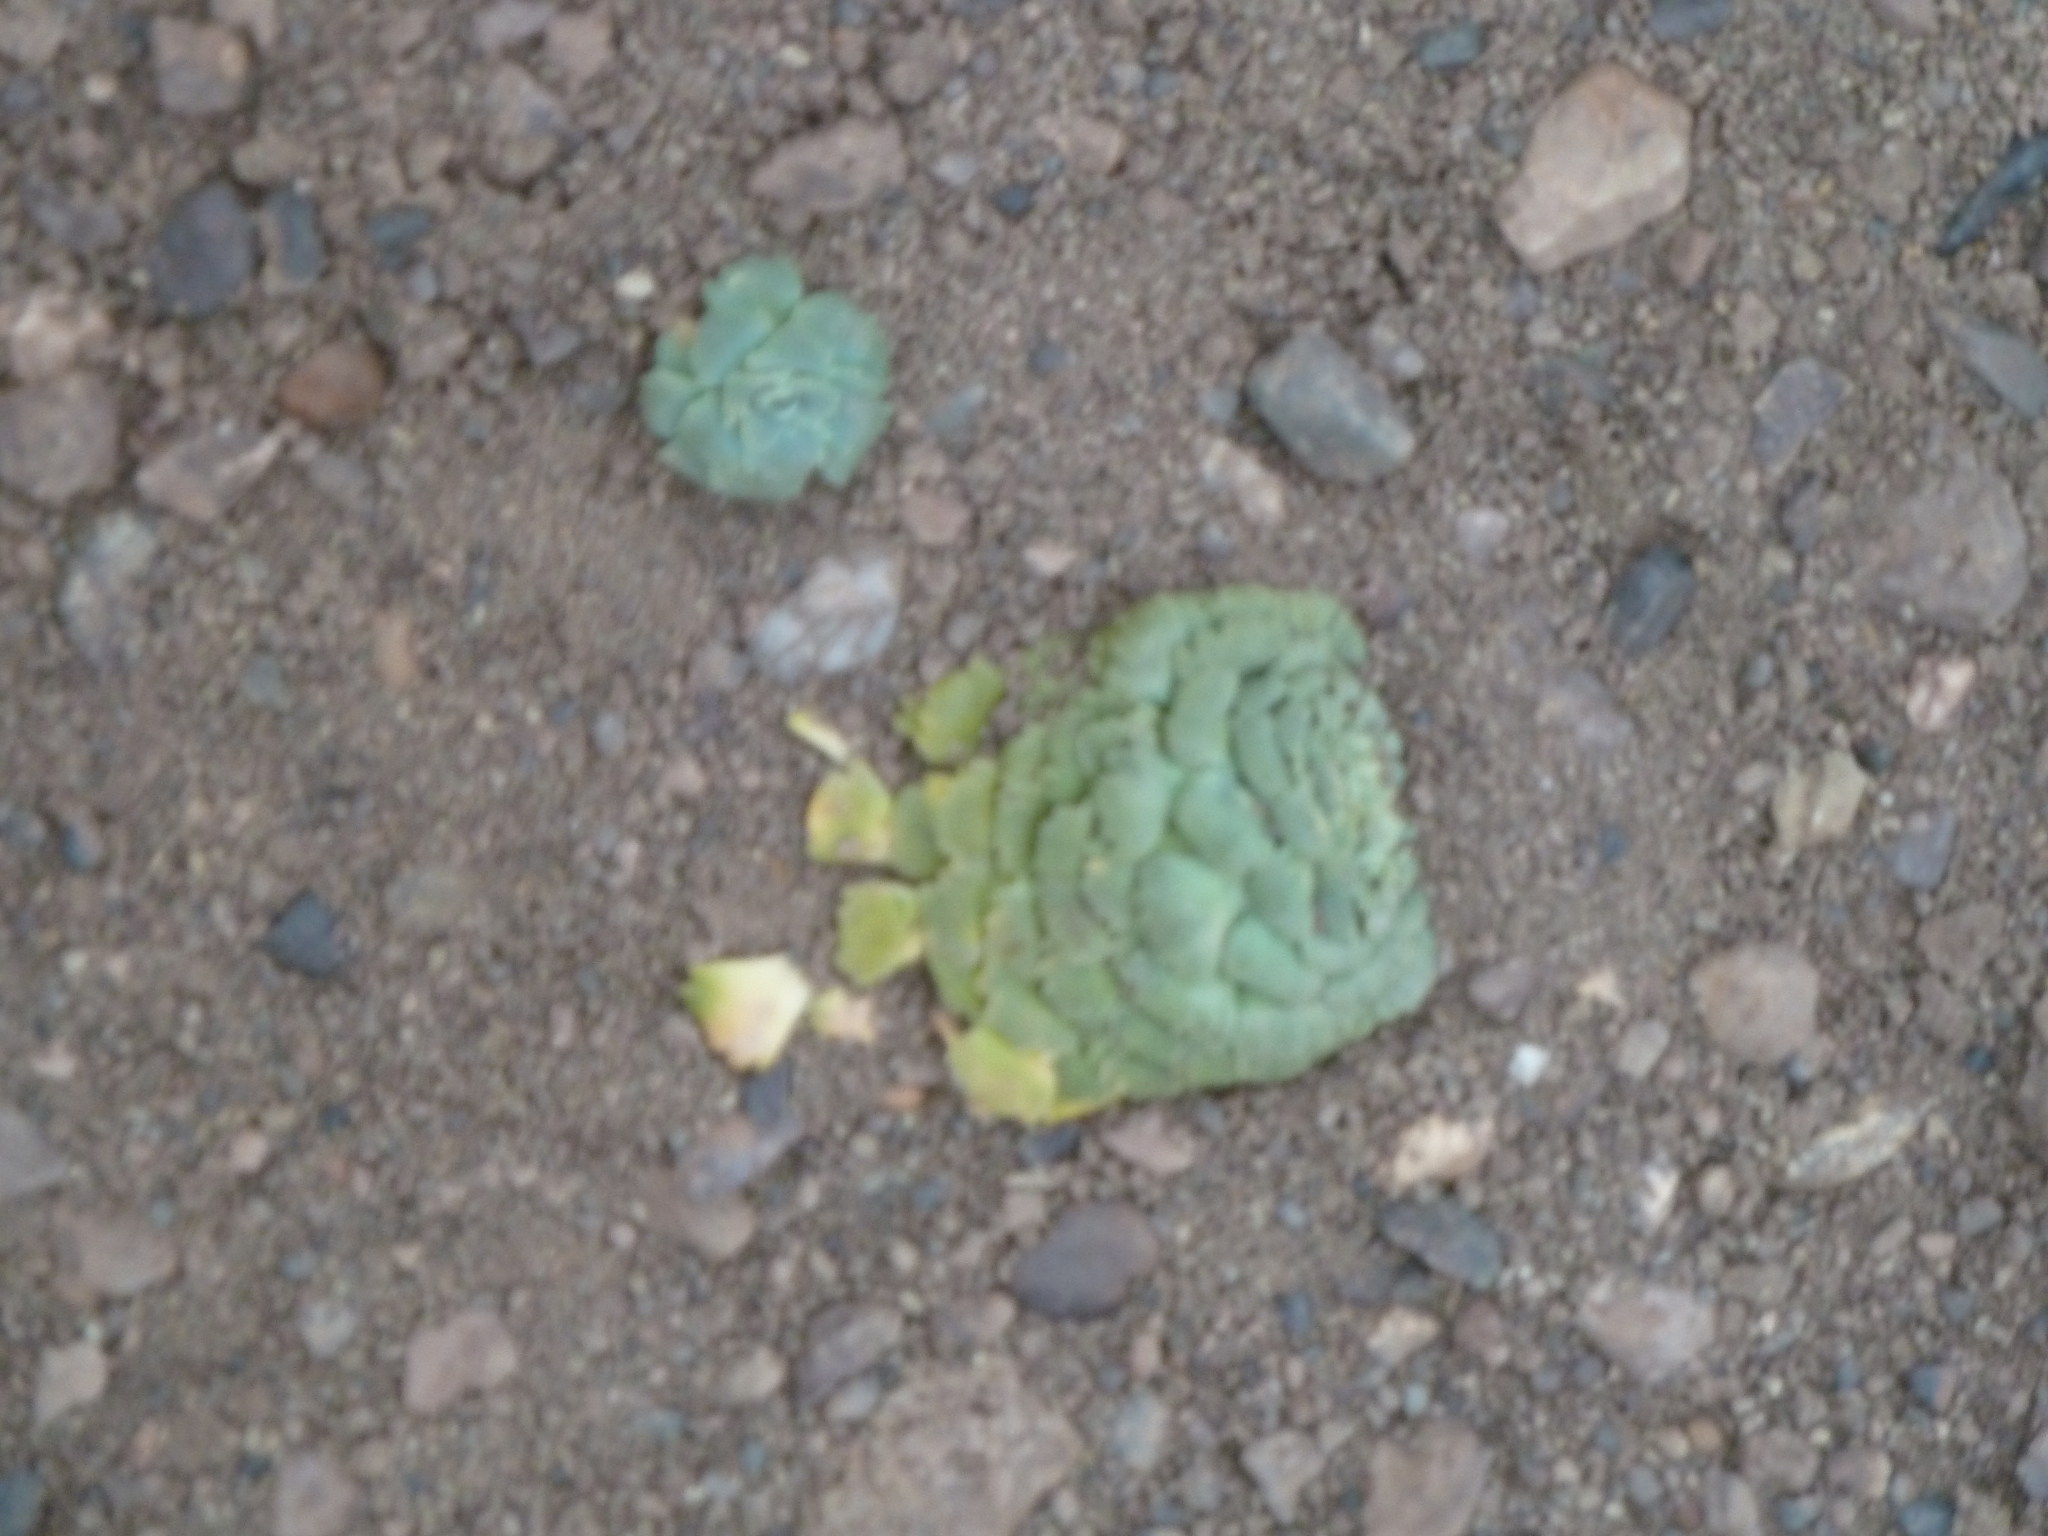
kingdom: Plantae
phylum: Tracheophyta
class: Magnoliopsida
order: Asterales
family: Calyceraceae
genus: Moschopsis
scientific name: Moschopsis rosulata
